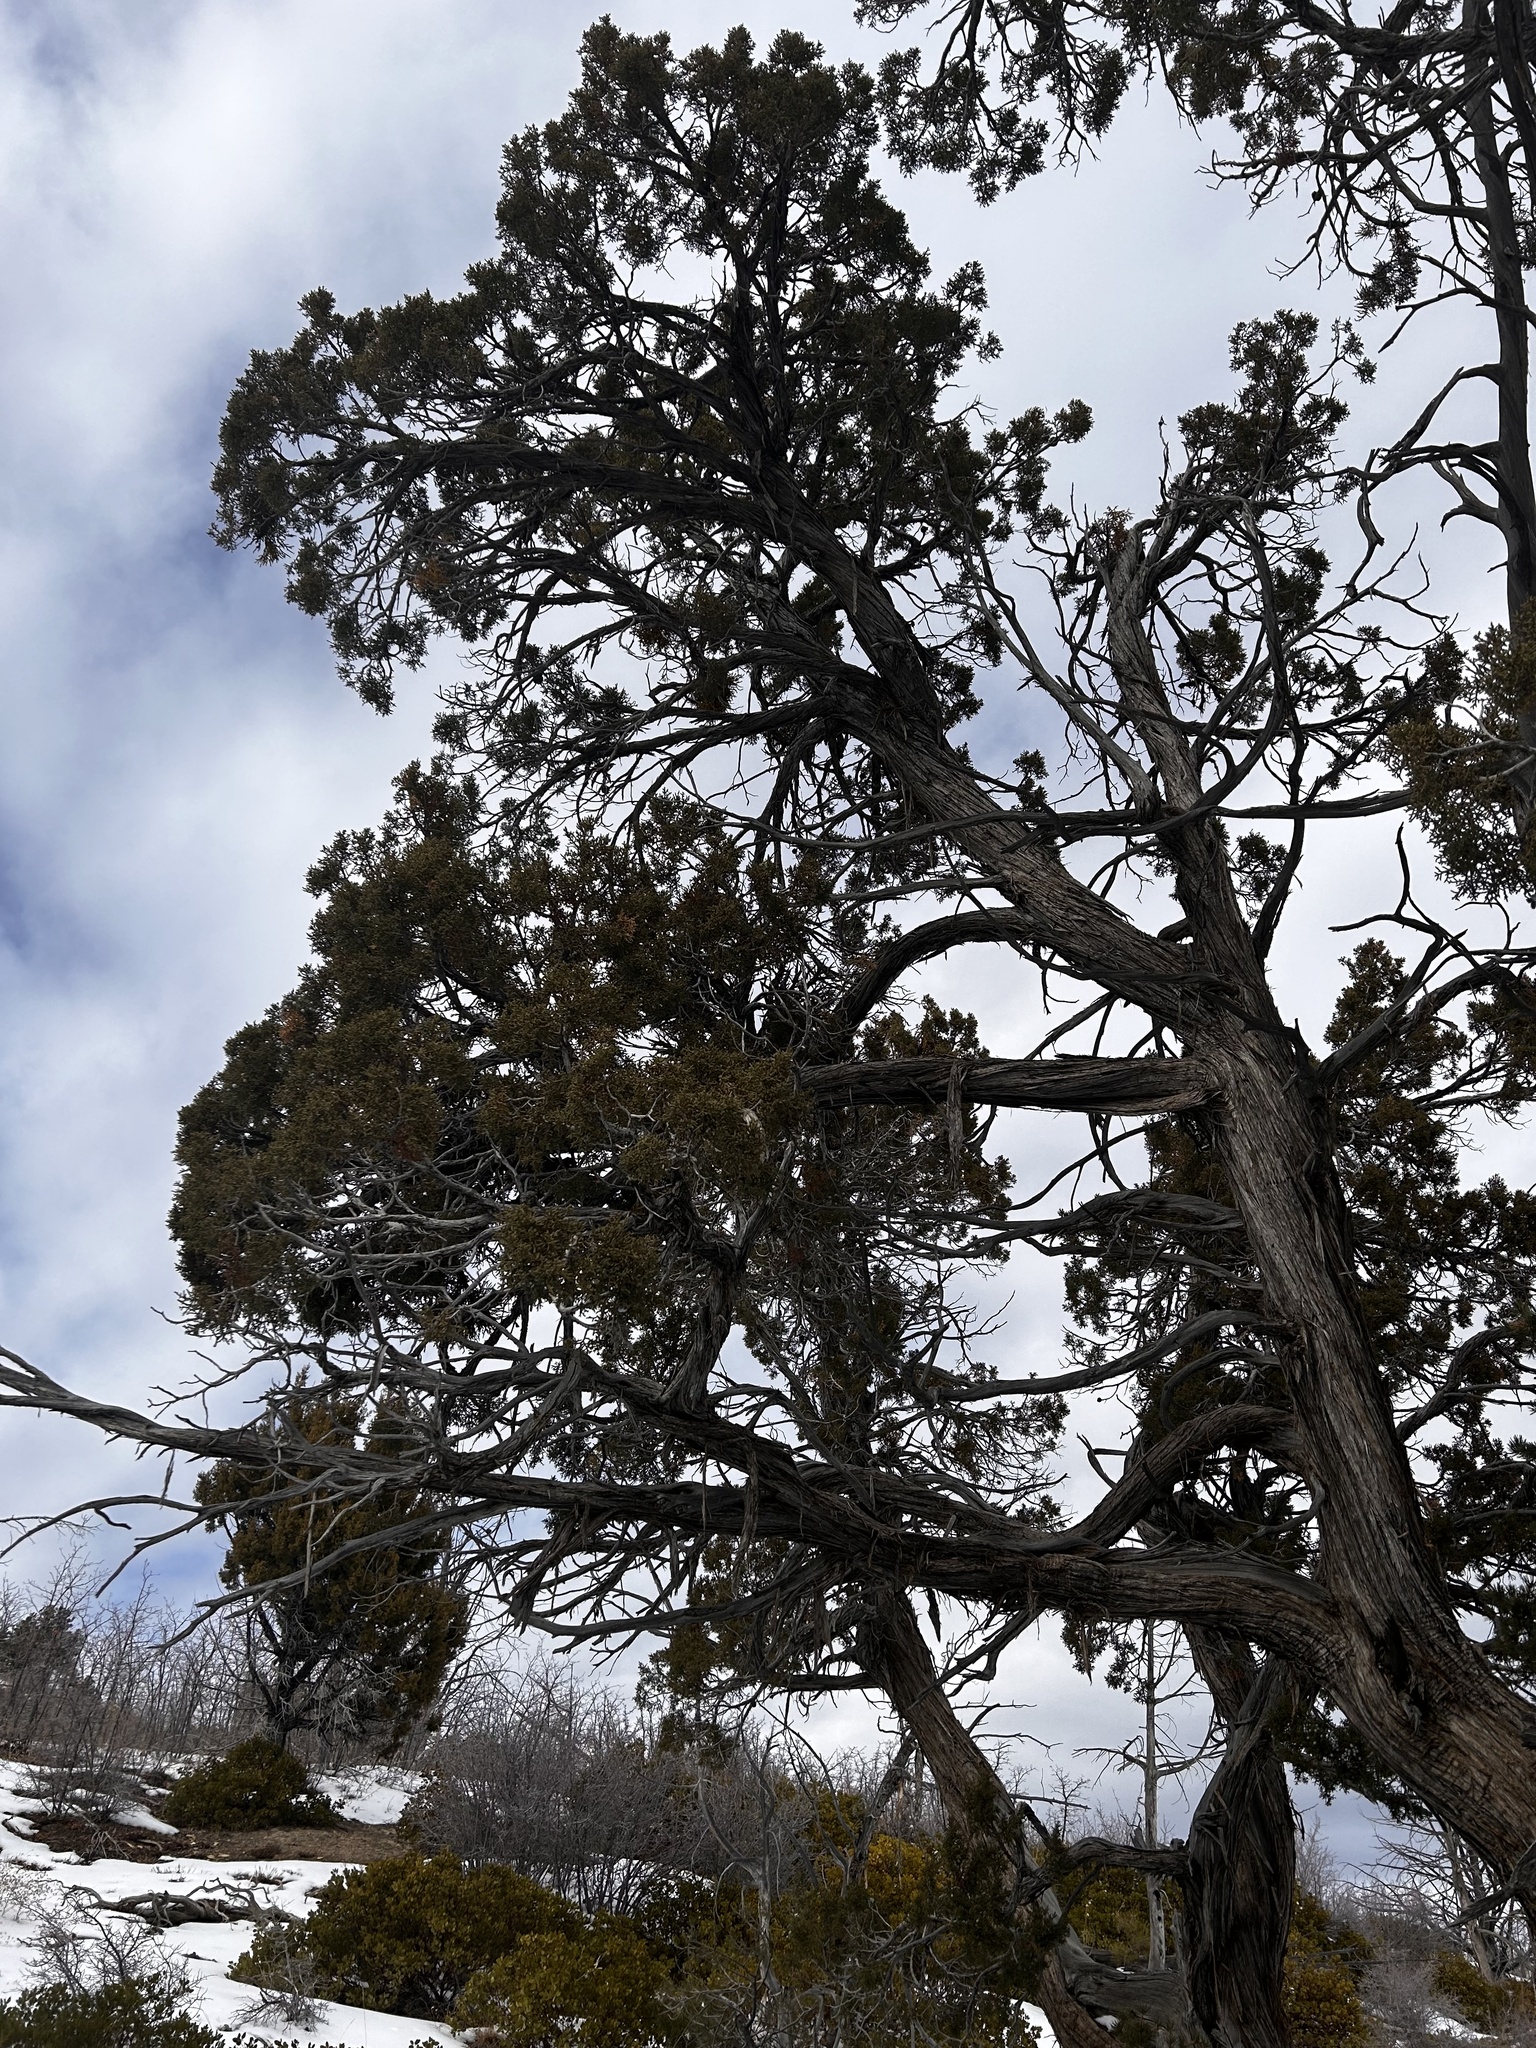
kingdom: Plantae
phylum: Tracheophyta
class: Pinopsida
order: Pinales
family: Cupressaceae
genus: Juniperus
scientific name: Juniperus osteosperma
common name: Utah juniper
